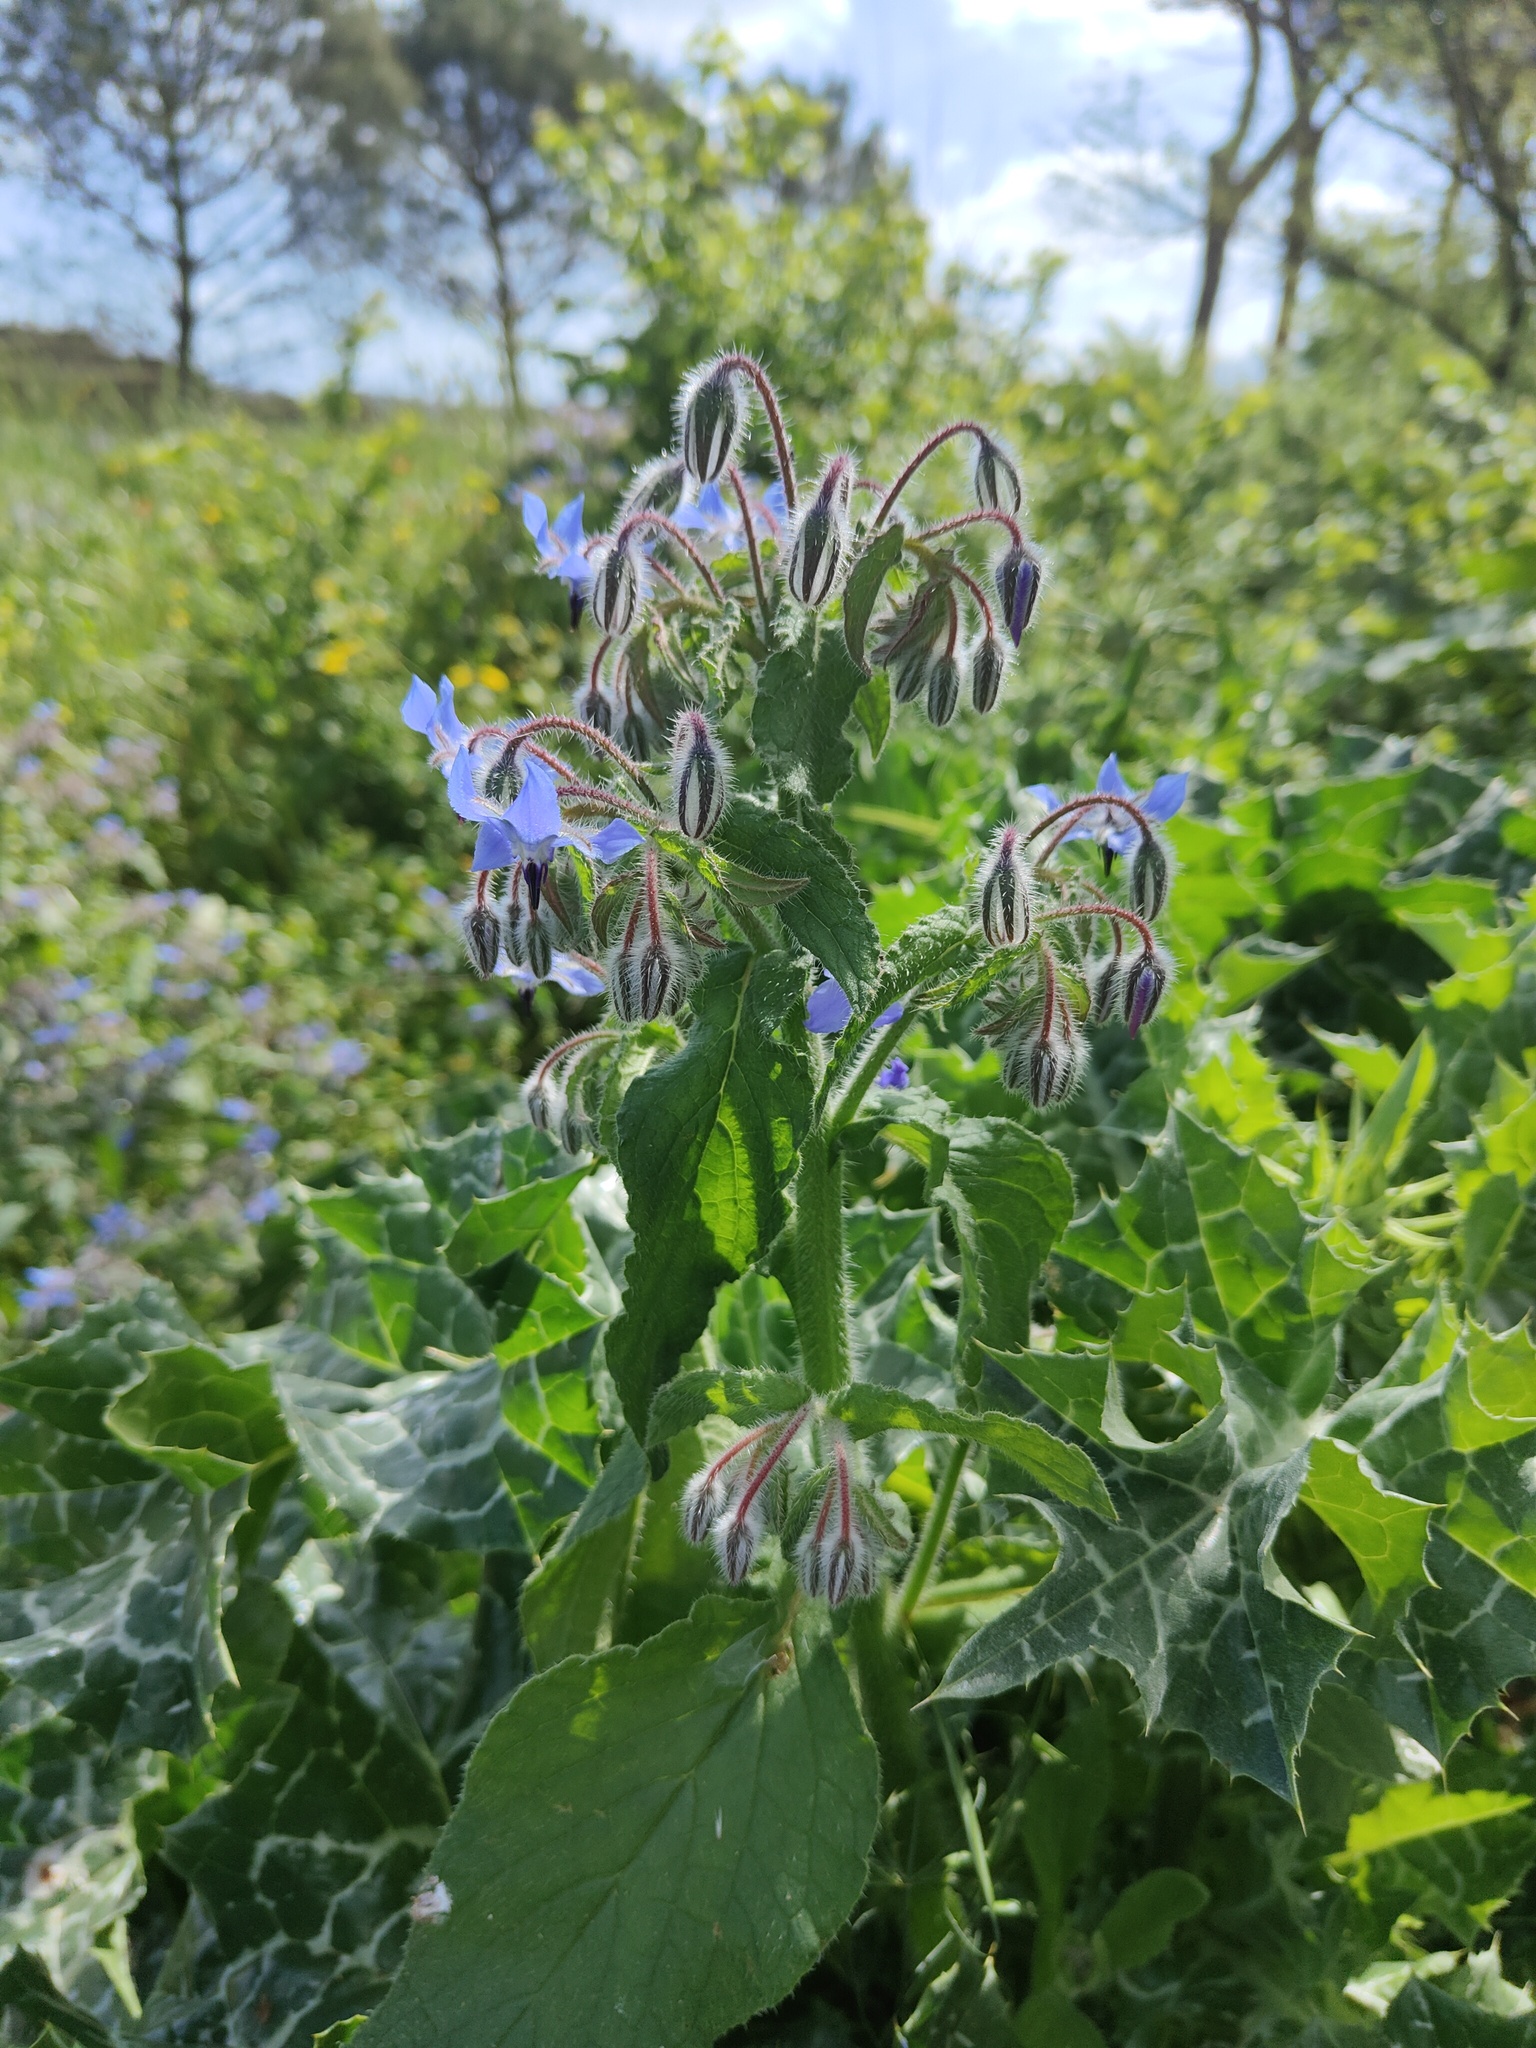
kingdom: Plantae
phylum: Tracheophyta
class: Magnoliopsida
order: Boraginales
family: Boraginaceae
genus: Borago
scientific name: Borago officinalis
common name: Borage
